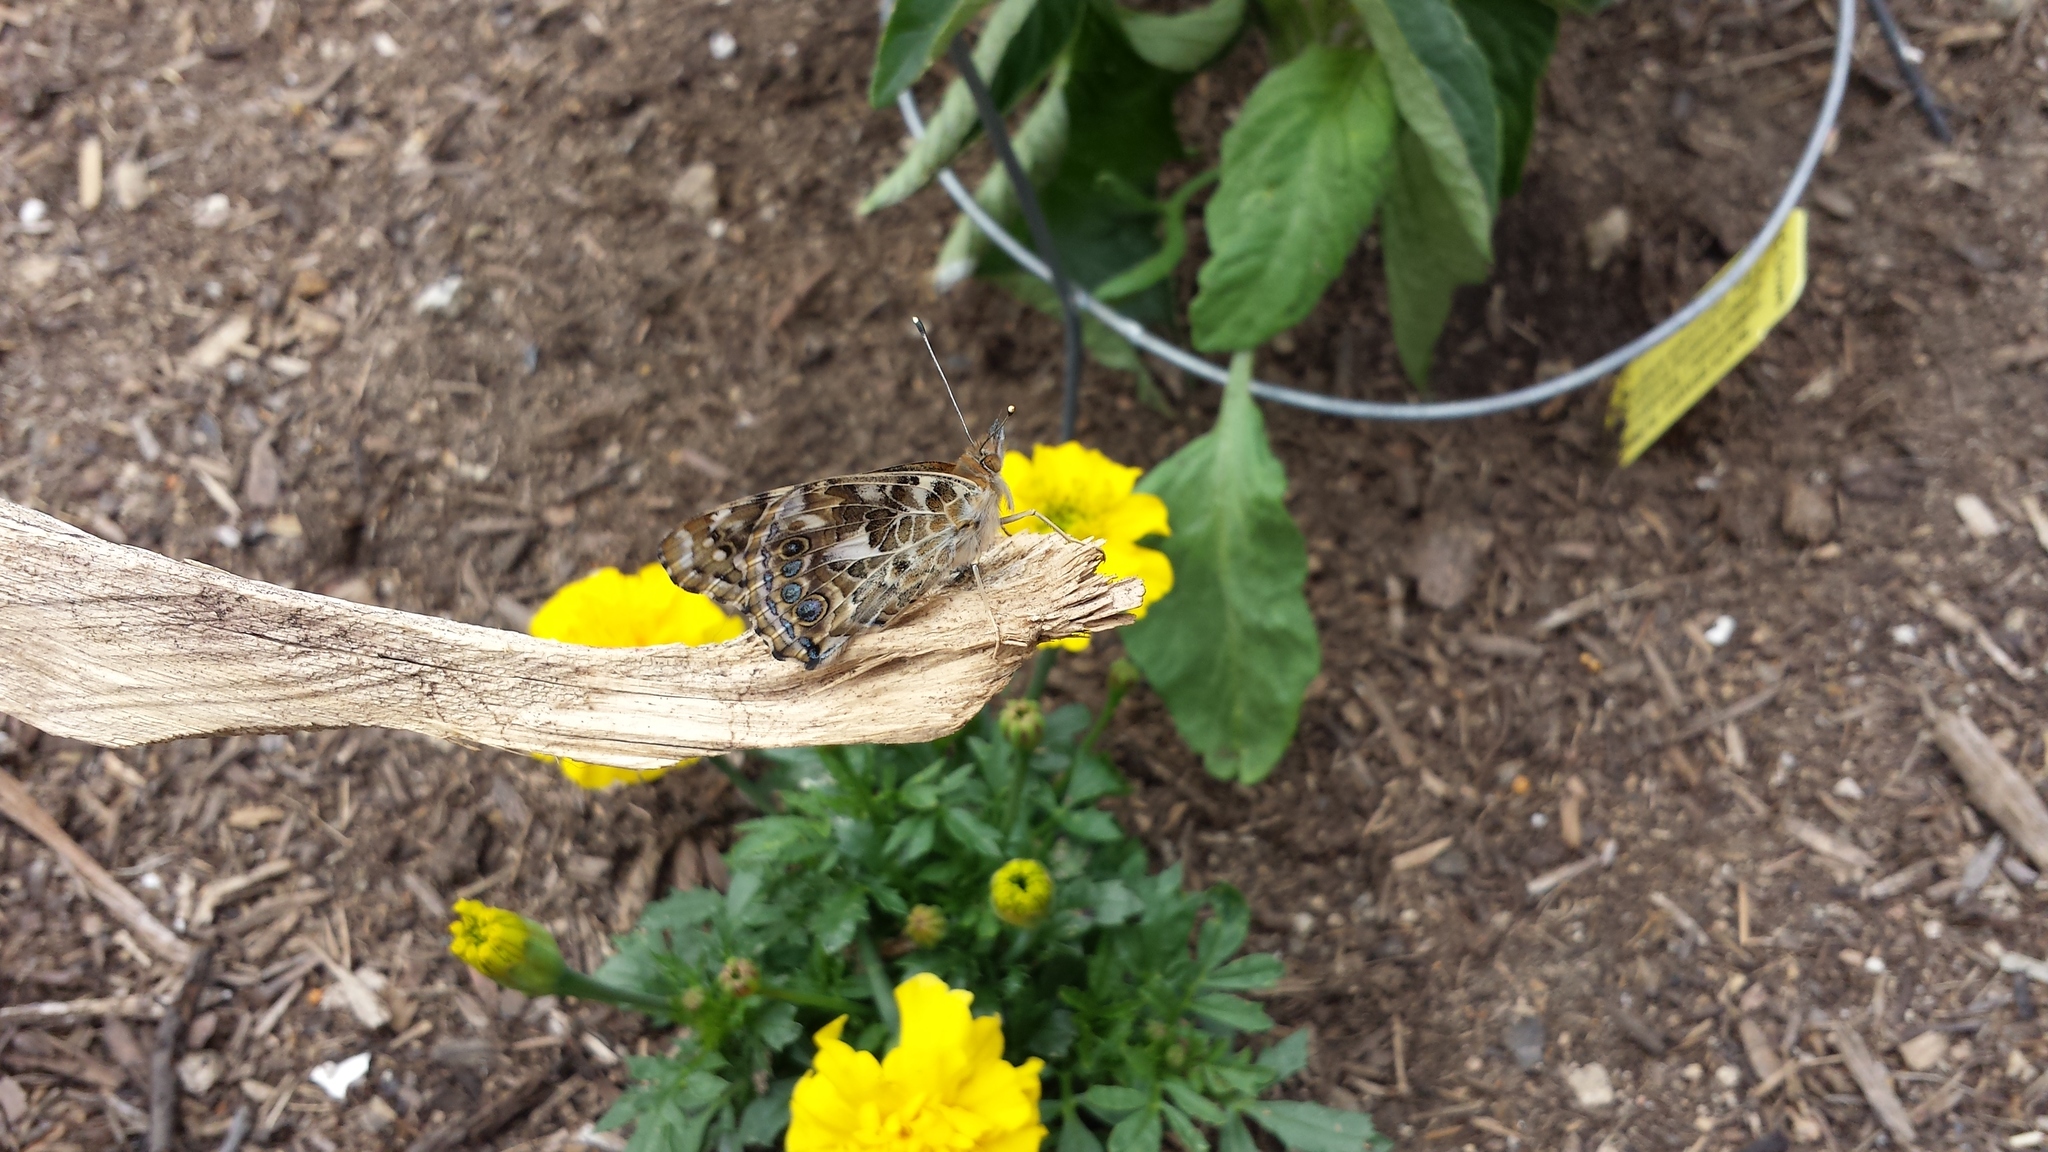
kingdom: Animalia
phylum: Arthropoda
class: Insecta
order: Lepidoptera
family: Nymphalidae
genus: Vanessa
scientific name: Vanessa cardui
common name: Painted lady
